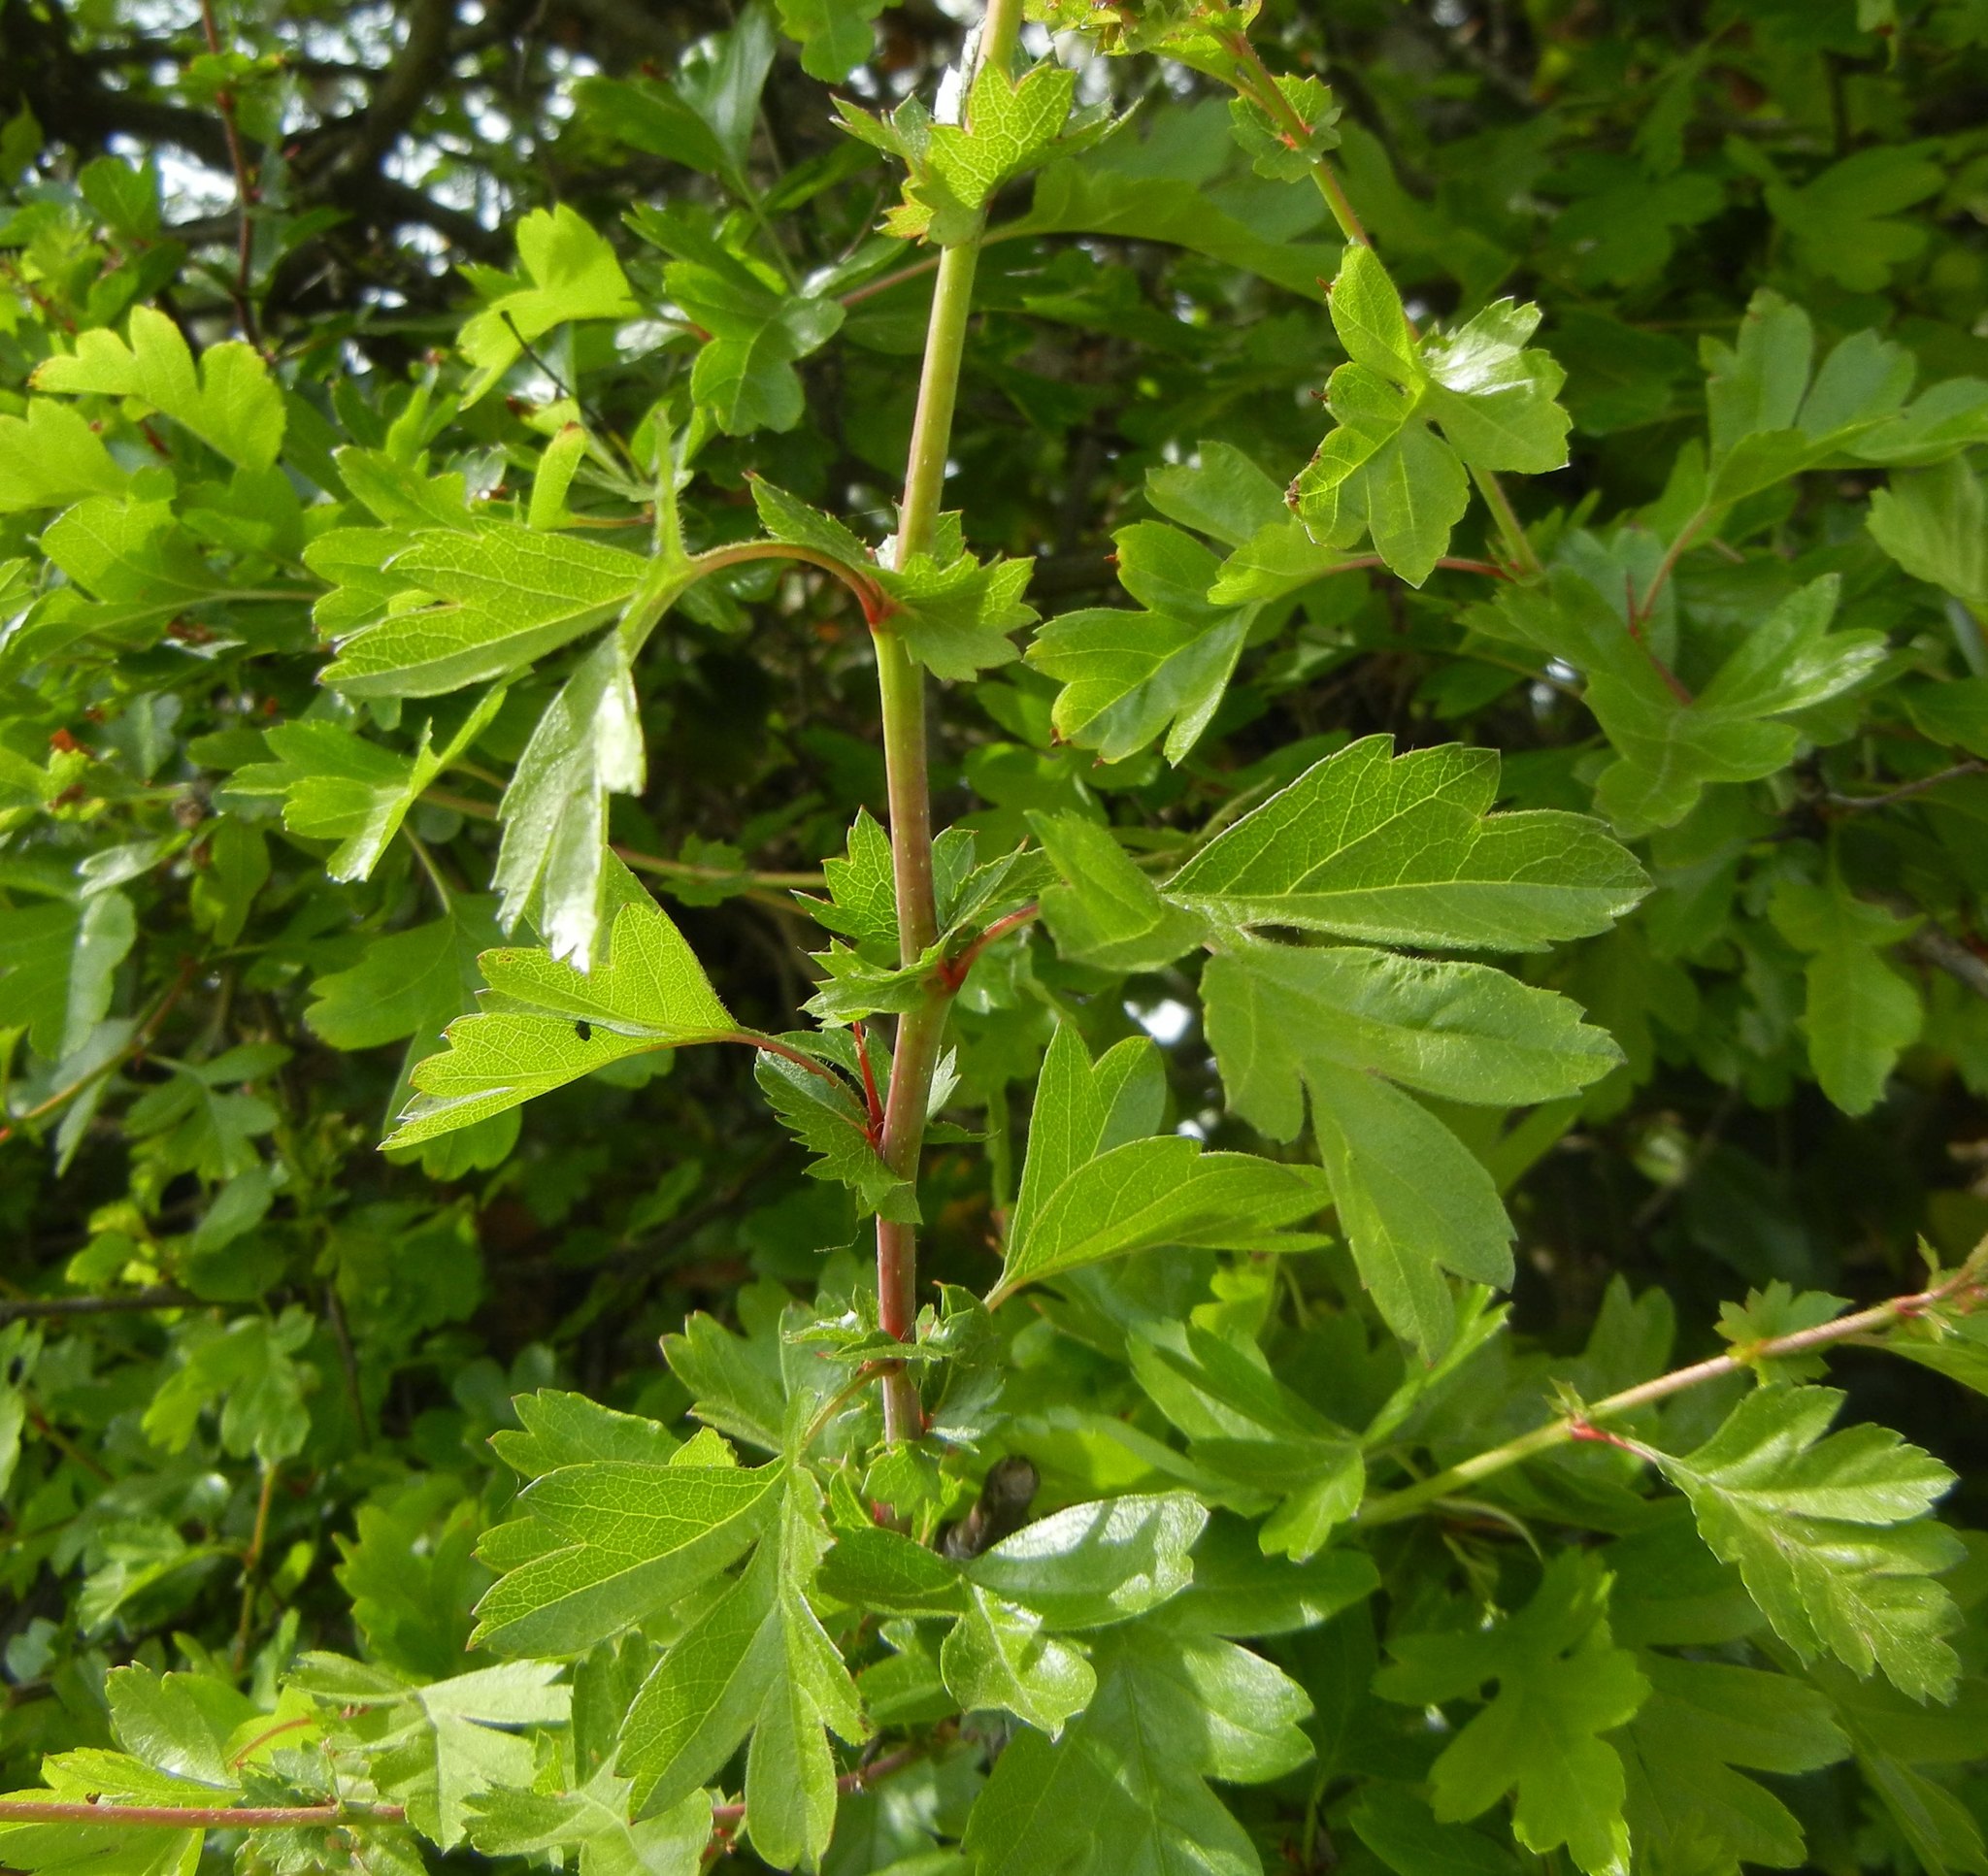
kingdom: Plantae
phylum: Tracheophyta
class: Magnoliopsida
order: Rosales
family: Rosaceae
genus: Crataegus
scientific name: Crataegus monogyna
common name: Hawthorn
